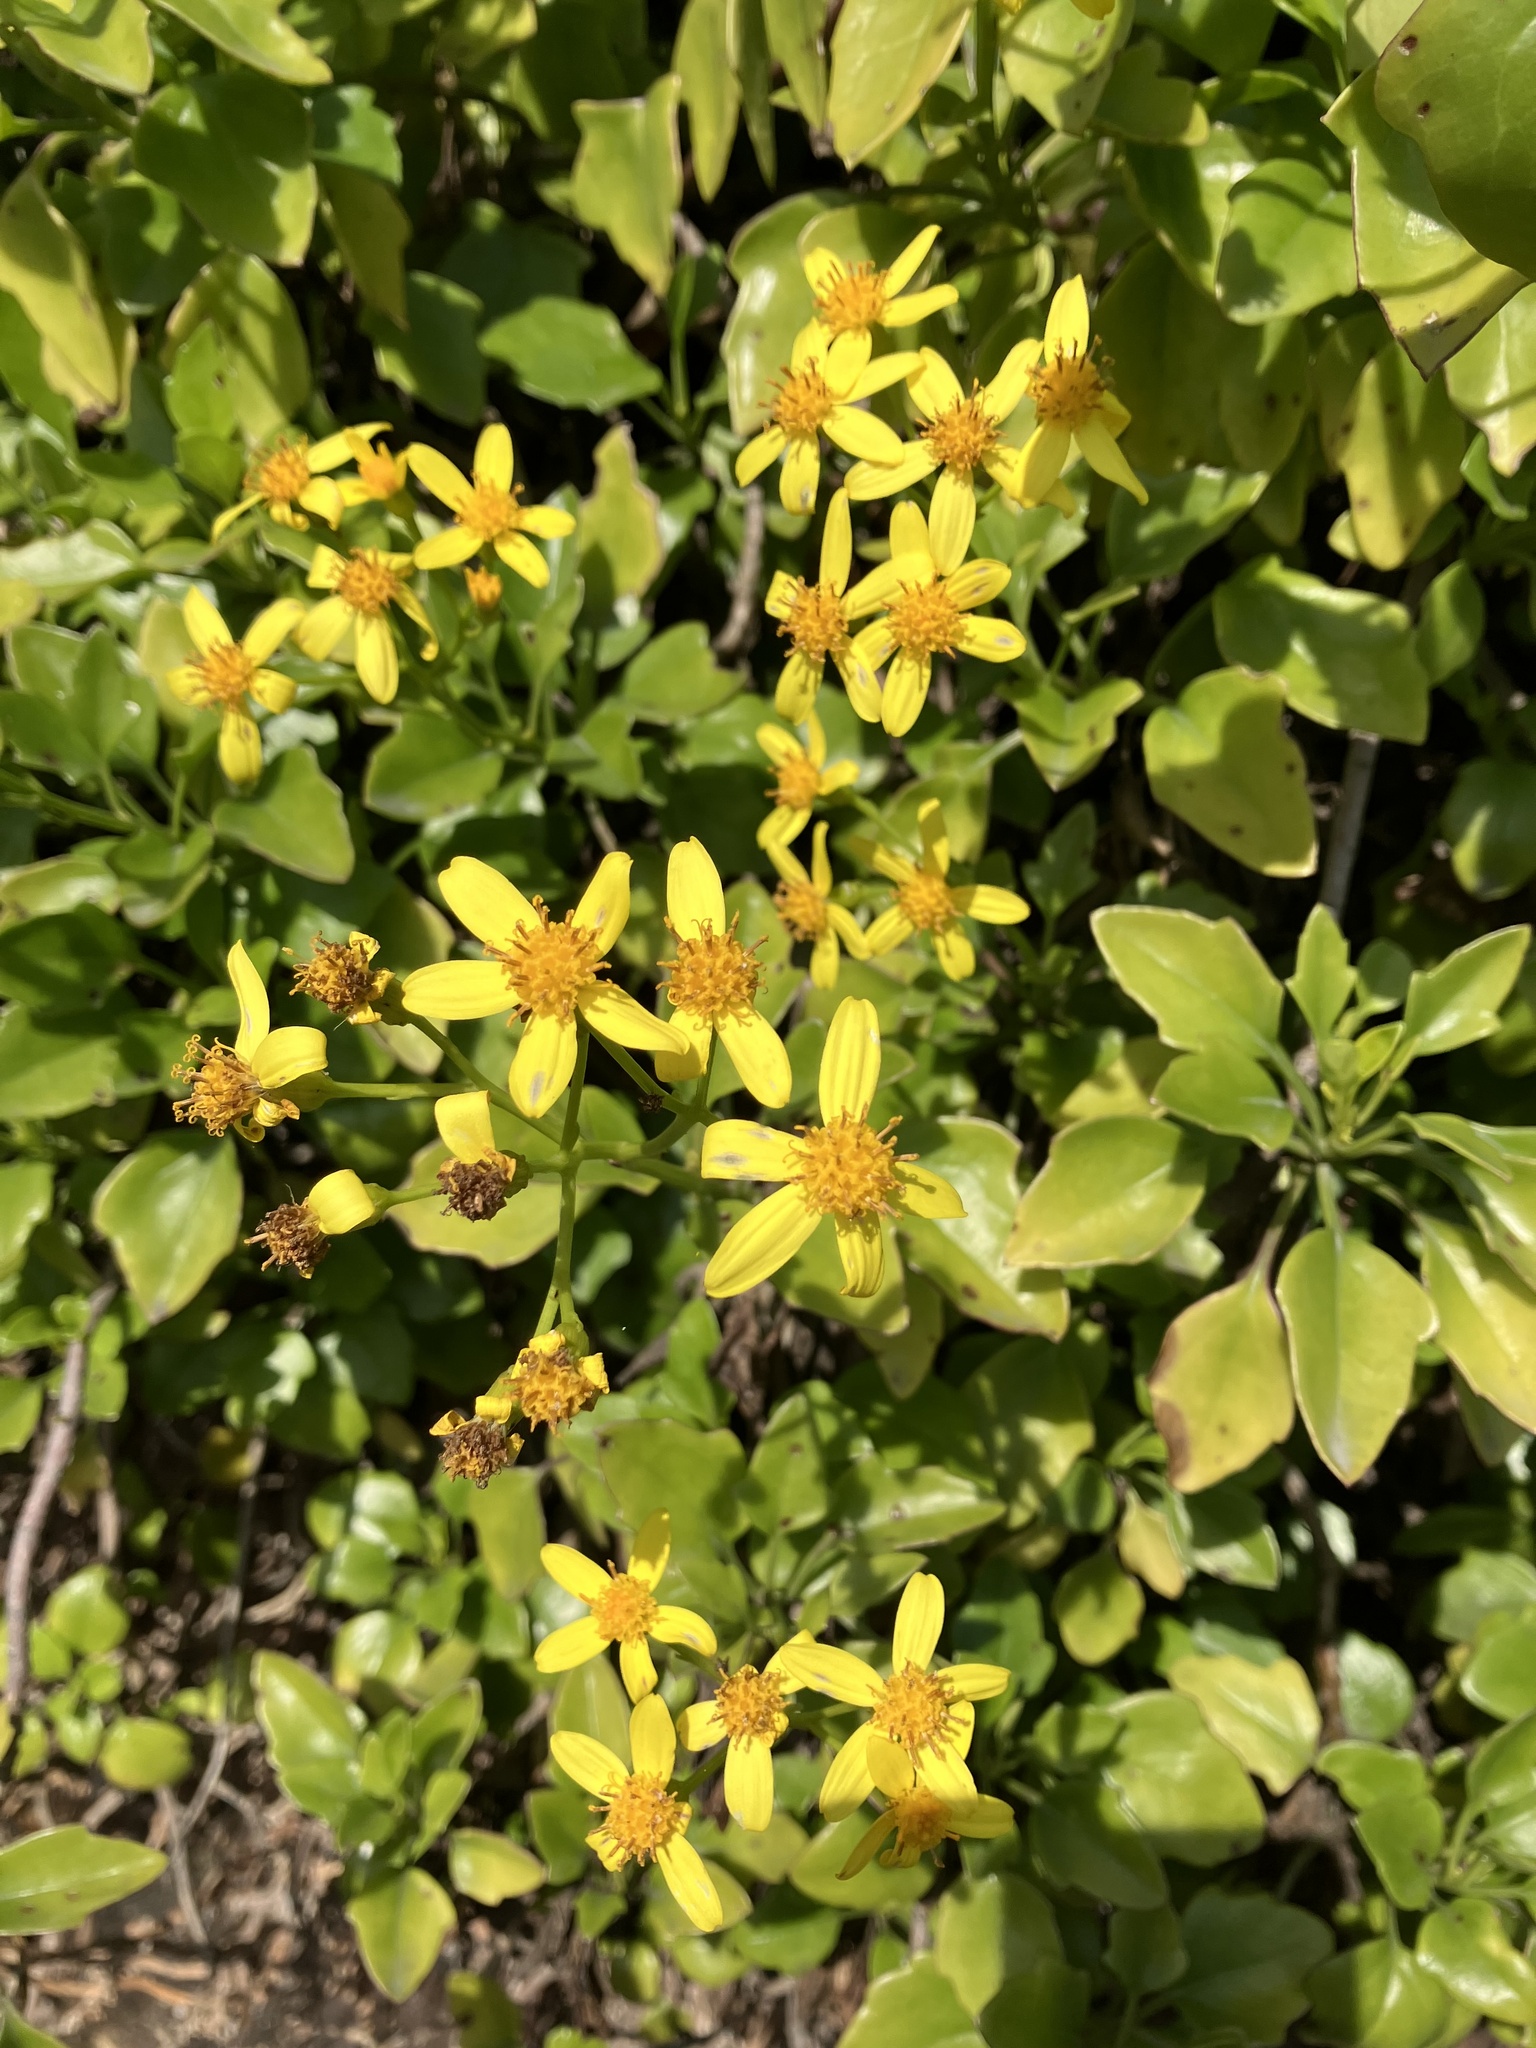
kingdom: Plantae
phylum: Tracheophyta
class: Magnoliopsida
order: Asterales
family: Asteraceae
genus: Senecio
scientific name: Senecio angulatus
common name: Climbing groundsel
